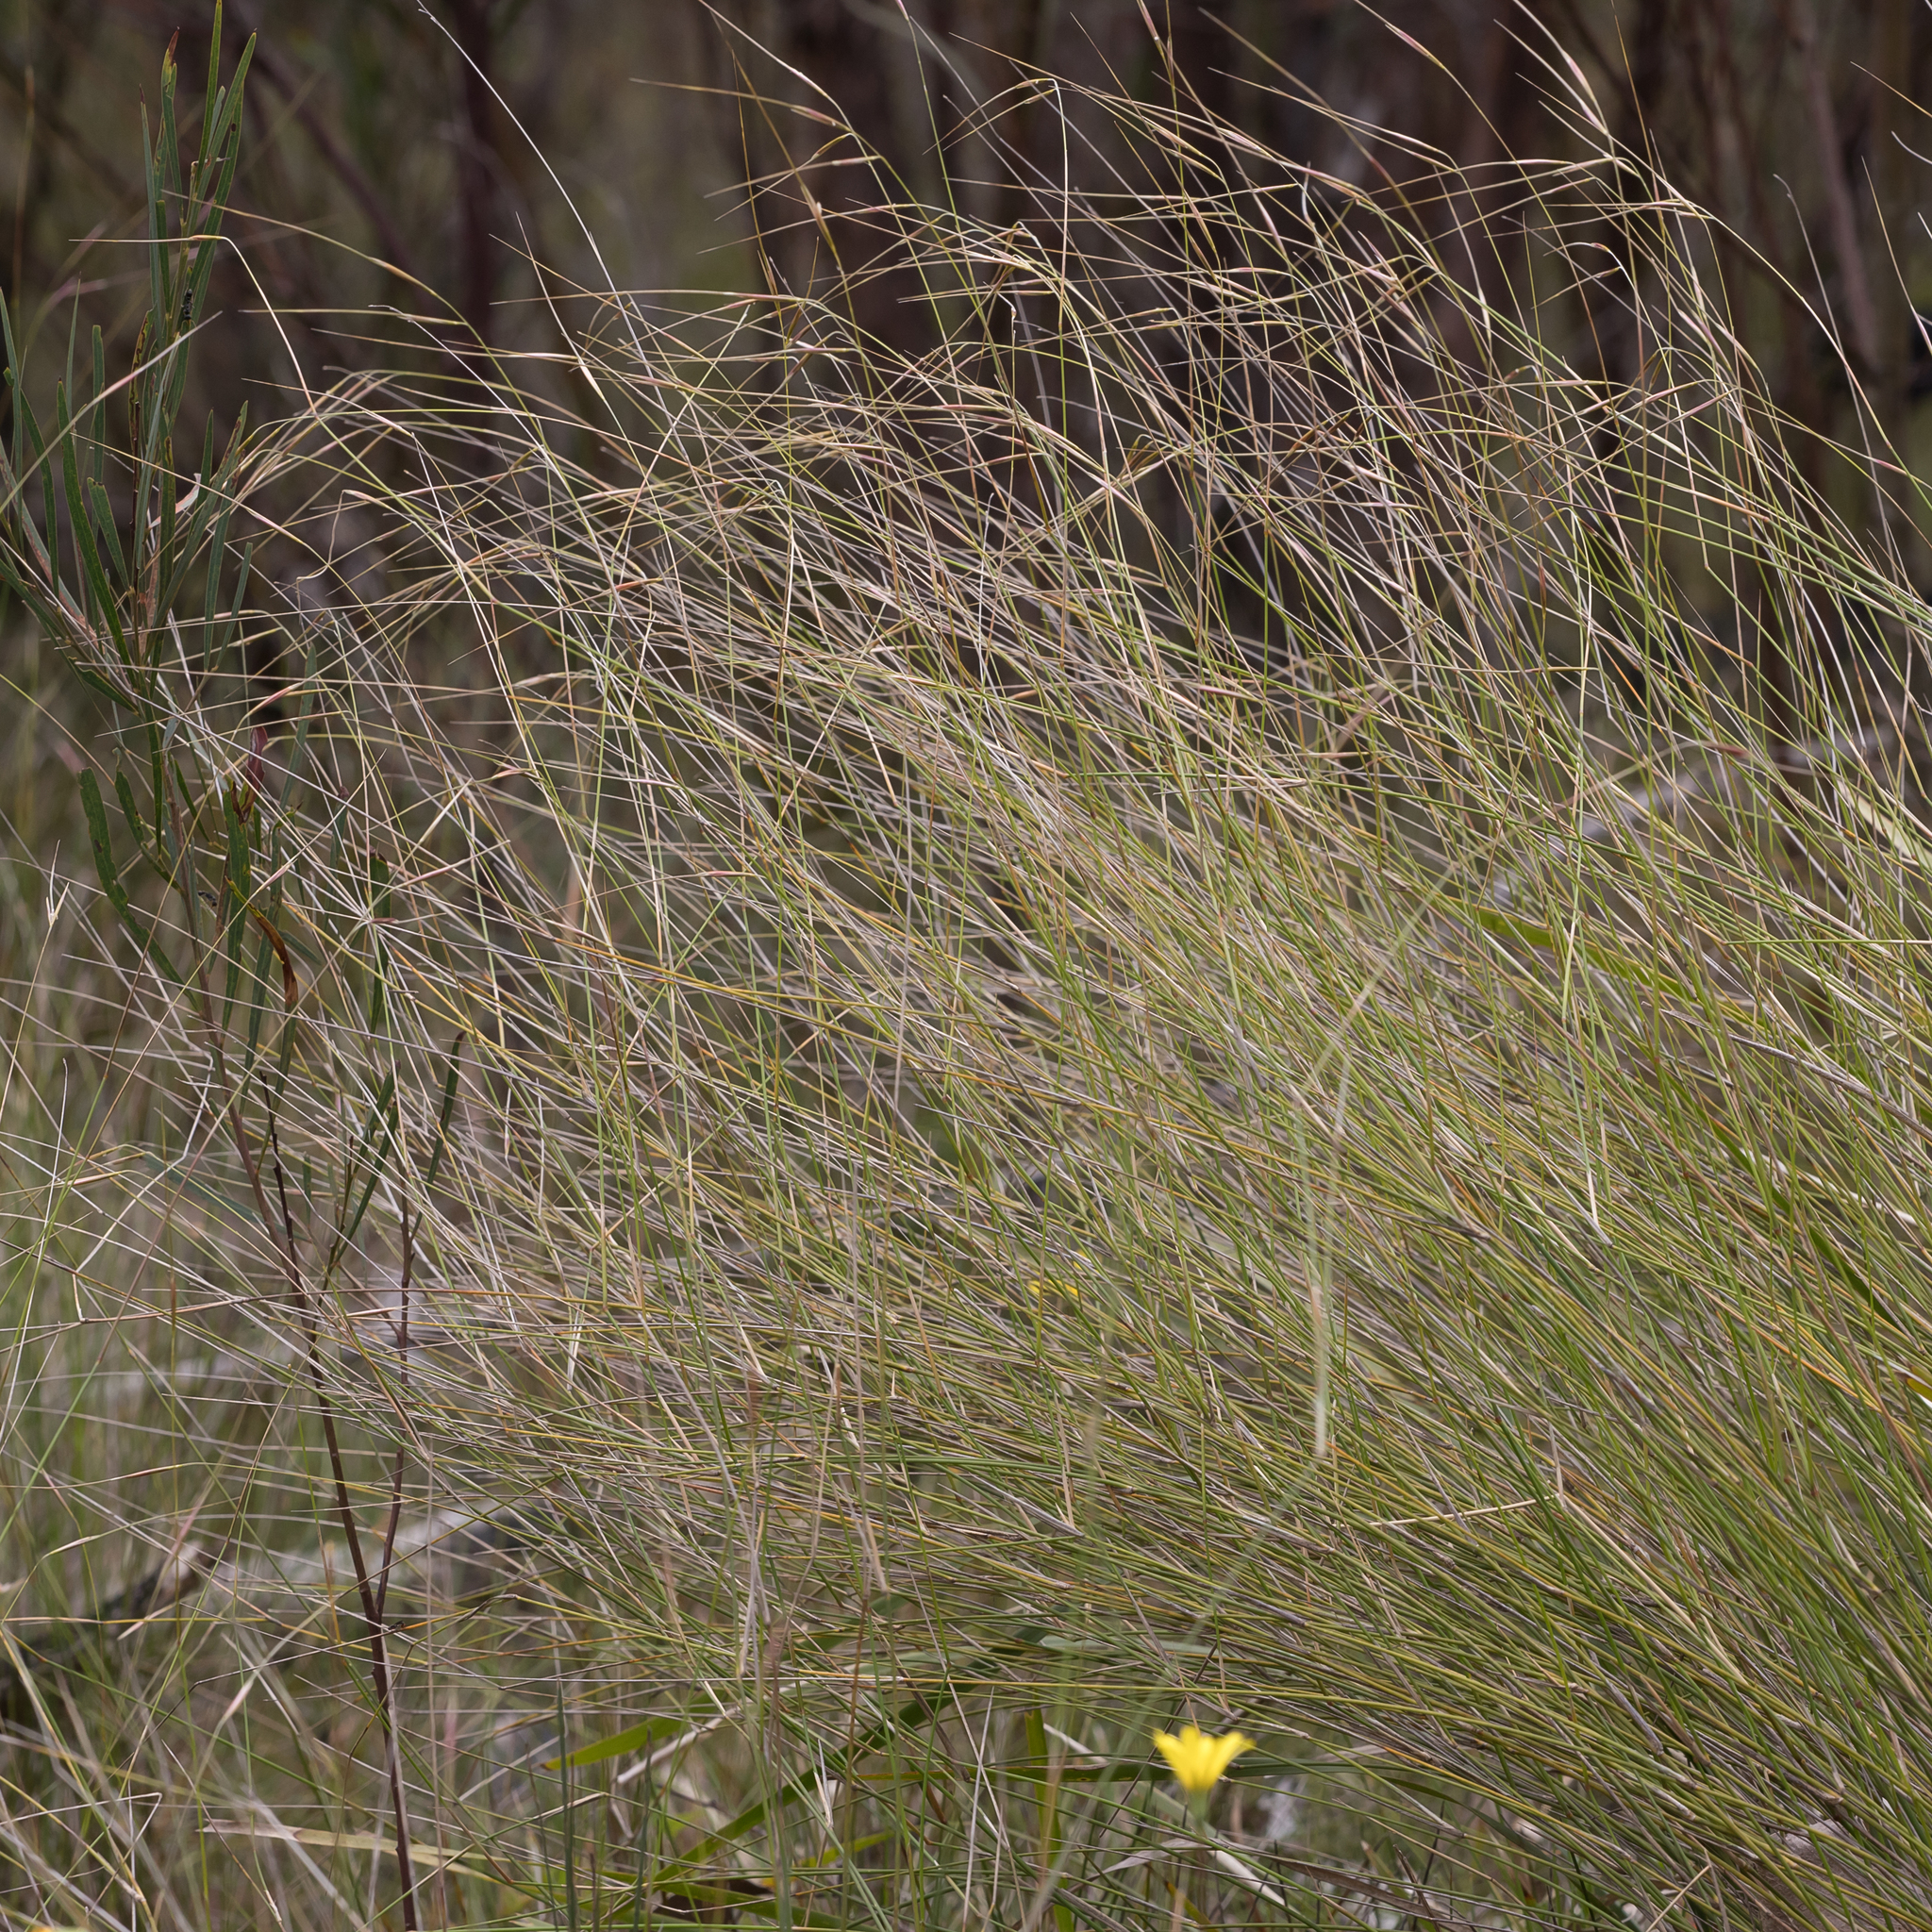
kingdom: Plantae
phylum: Tracheophyta
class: Liliopsida
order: Poales
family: Poaceae
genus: Austrostipa
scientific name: Austrostipa muelleri
